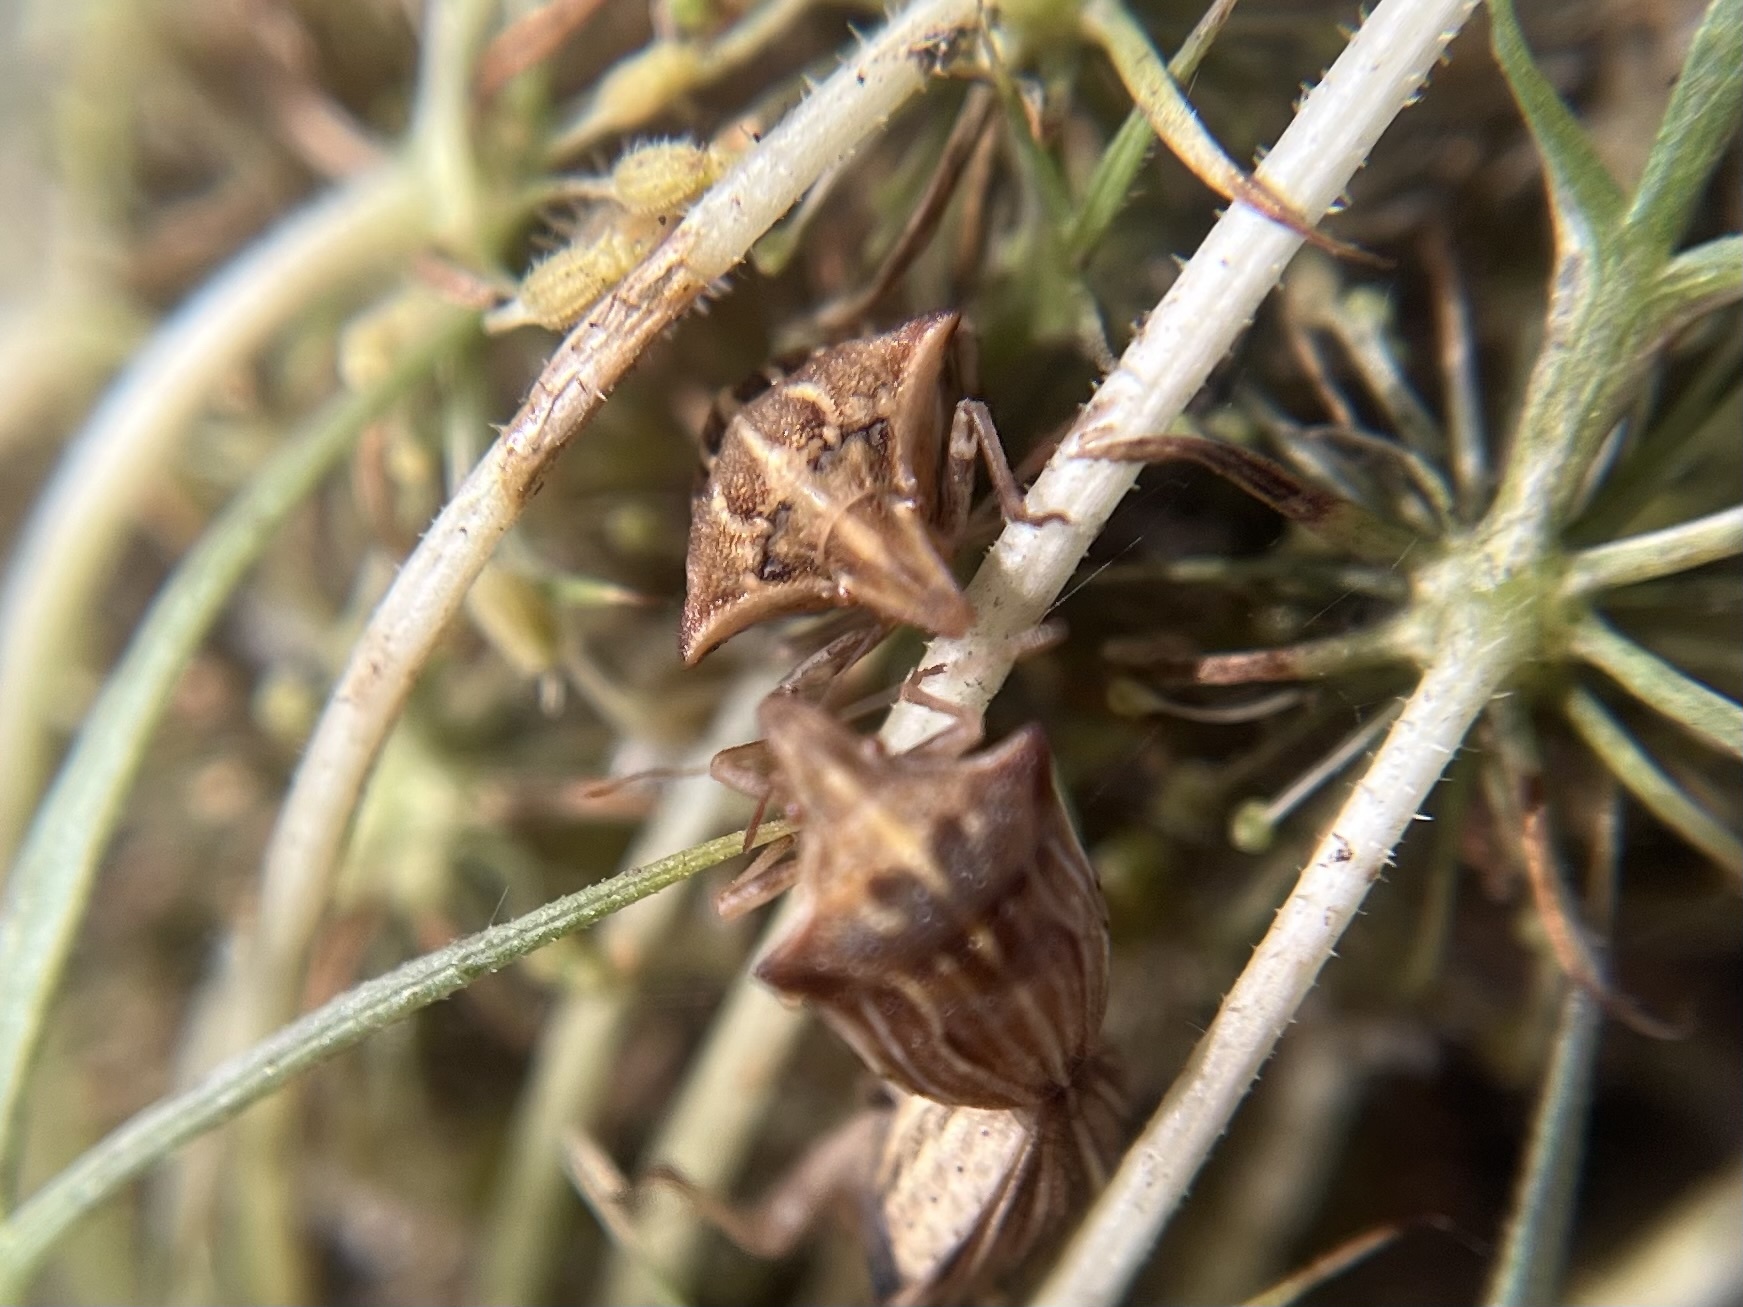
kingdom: Animalia
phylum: Arthropoda
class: Insecta
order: Hemiptera
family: Pentatomidae
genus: Ancyrosoma
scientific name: Ancyrosoma leucogrammes
